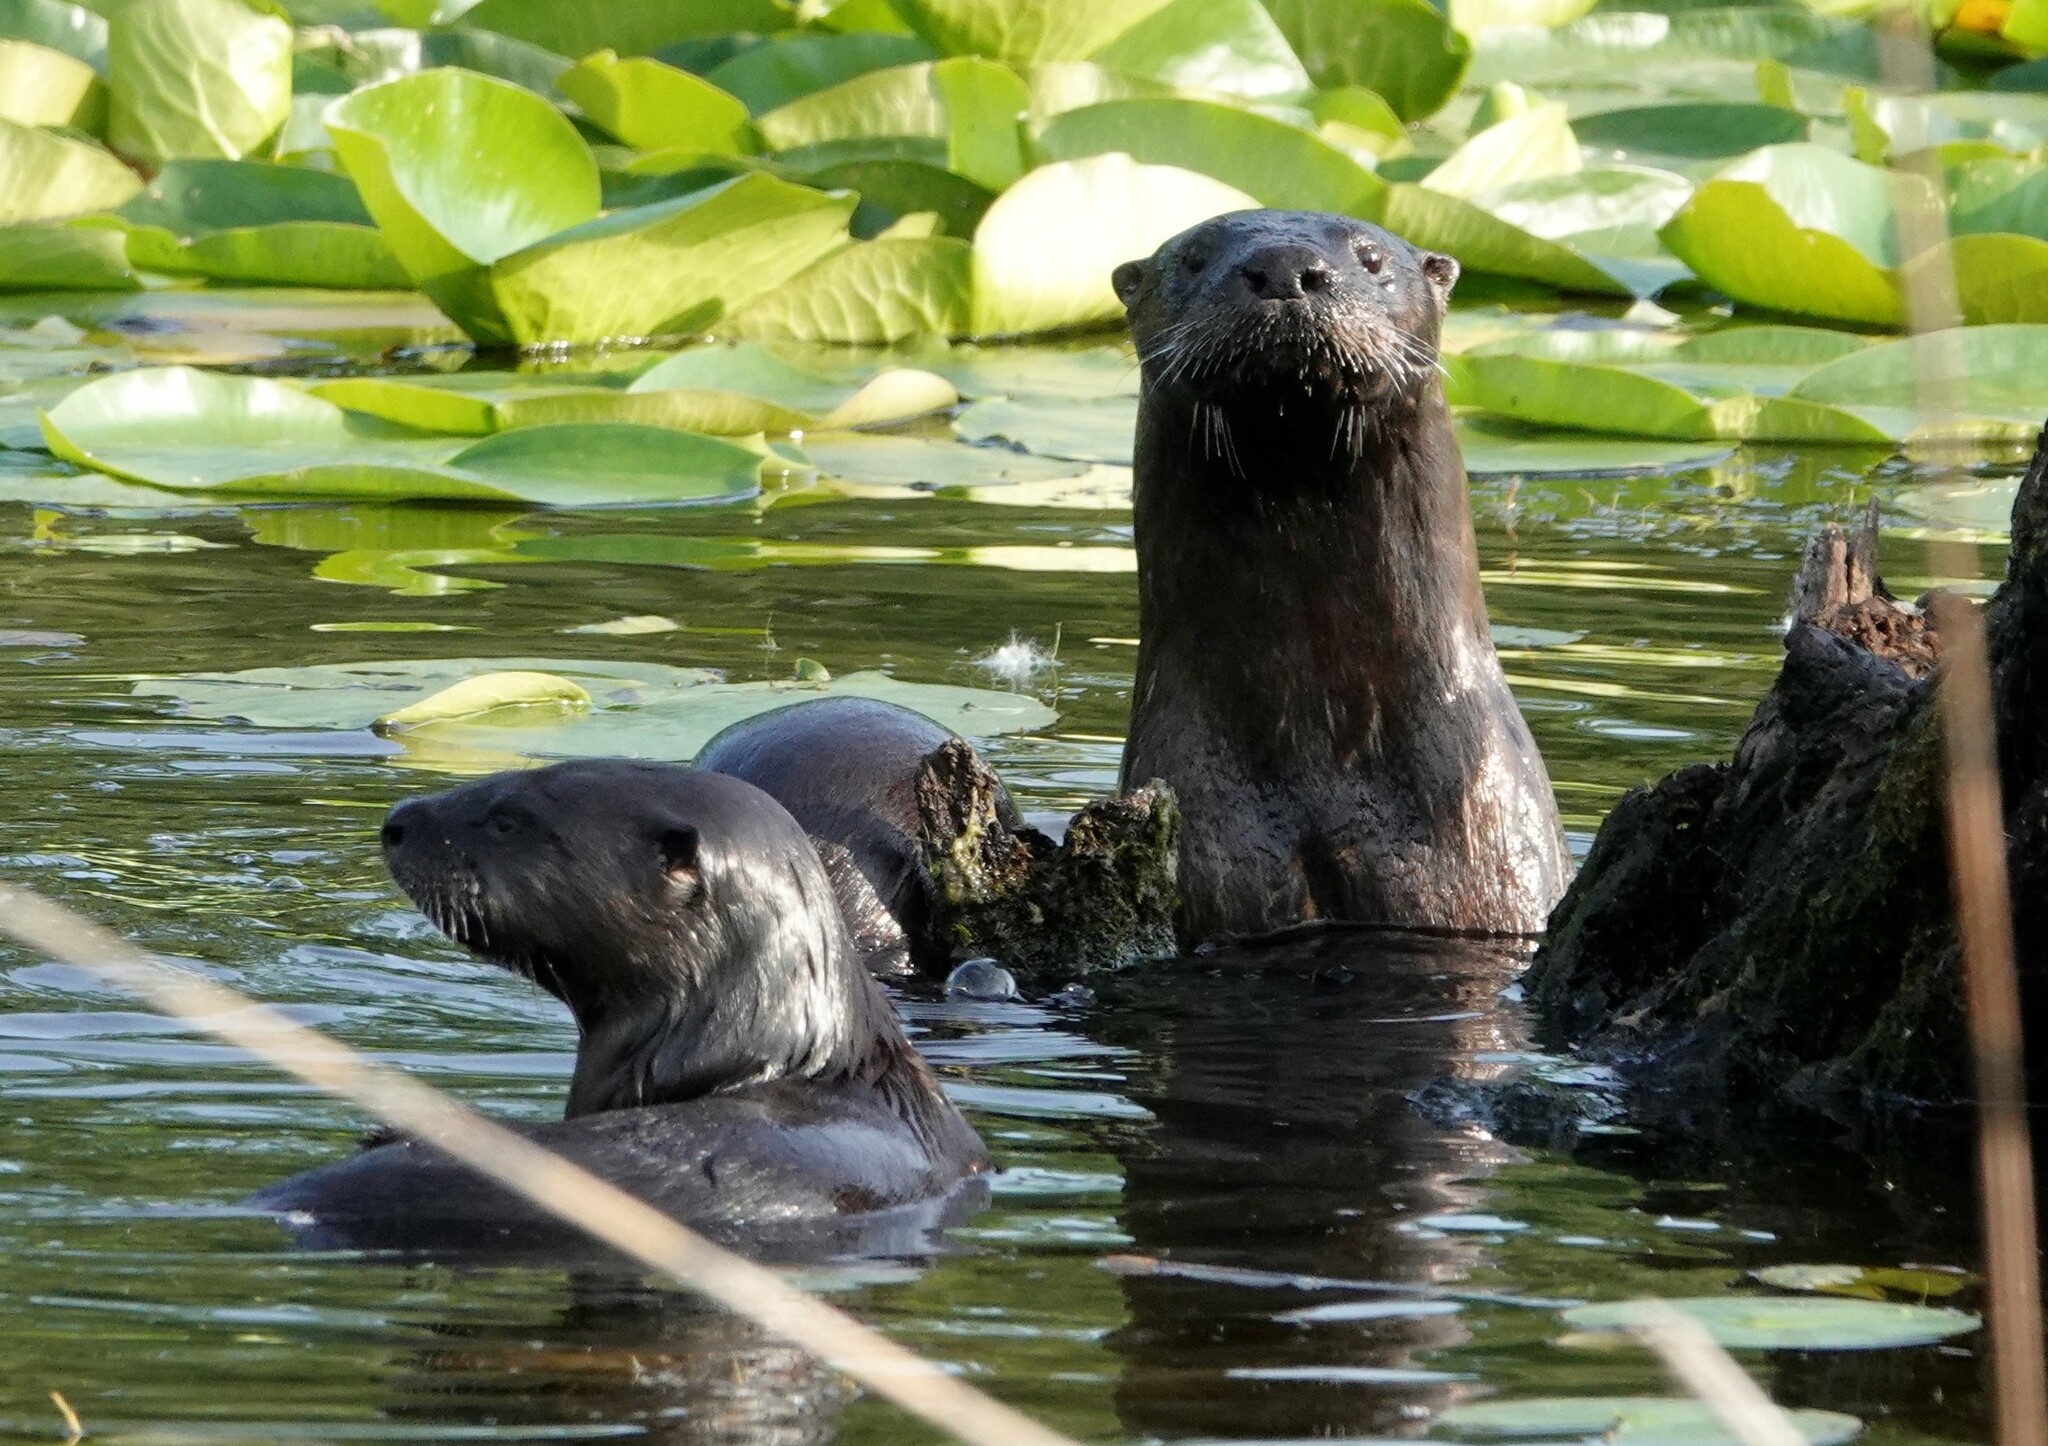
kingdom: Animalia
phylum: Chordata
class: Mammalia
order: Carnivora
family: Mustelidae
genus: Lontra
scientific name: Lontra canadensis
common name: North american river otter
